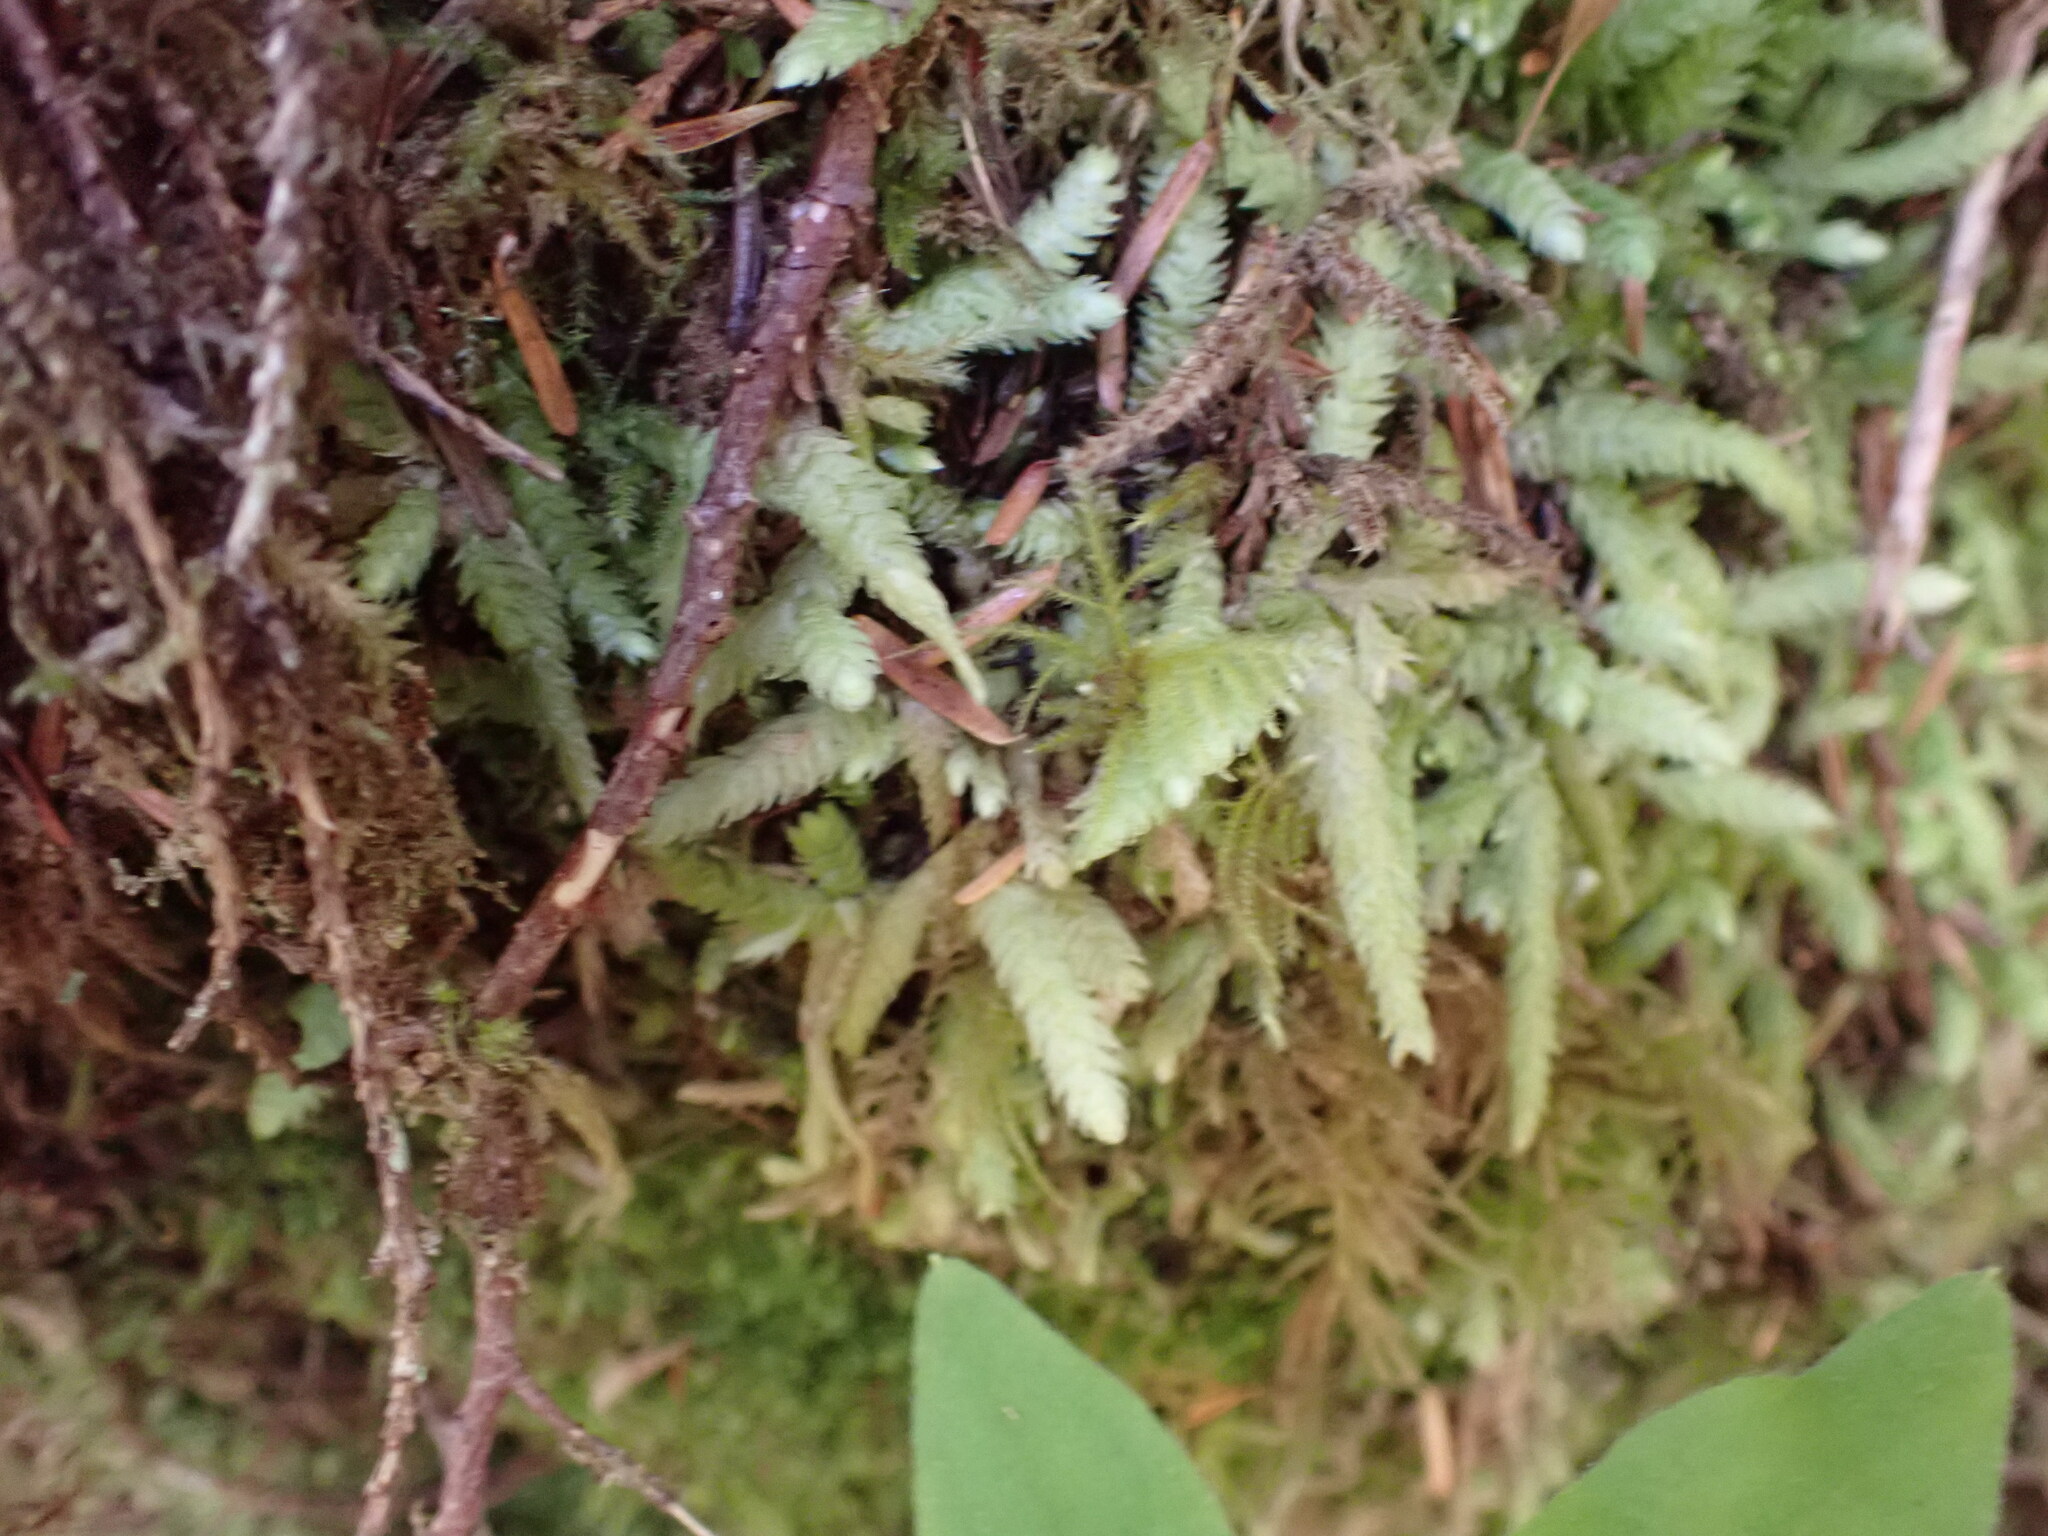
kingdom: Plantae
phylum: Bryophyta
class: Bryopsida
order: Hypnales
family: Plagiotheciaceae
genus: Plagiothecium
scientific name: Plagiothecium undulatum
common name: Waved silk-moss
